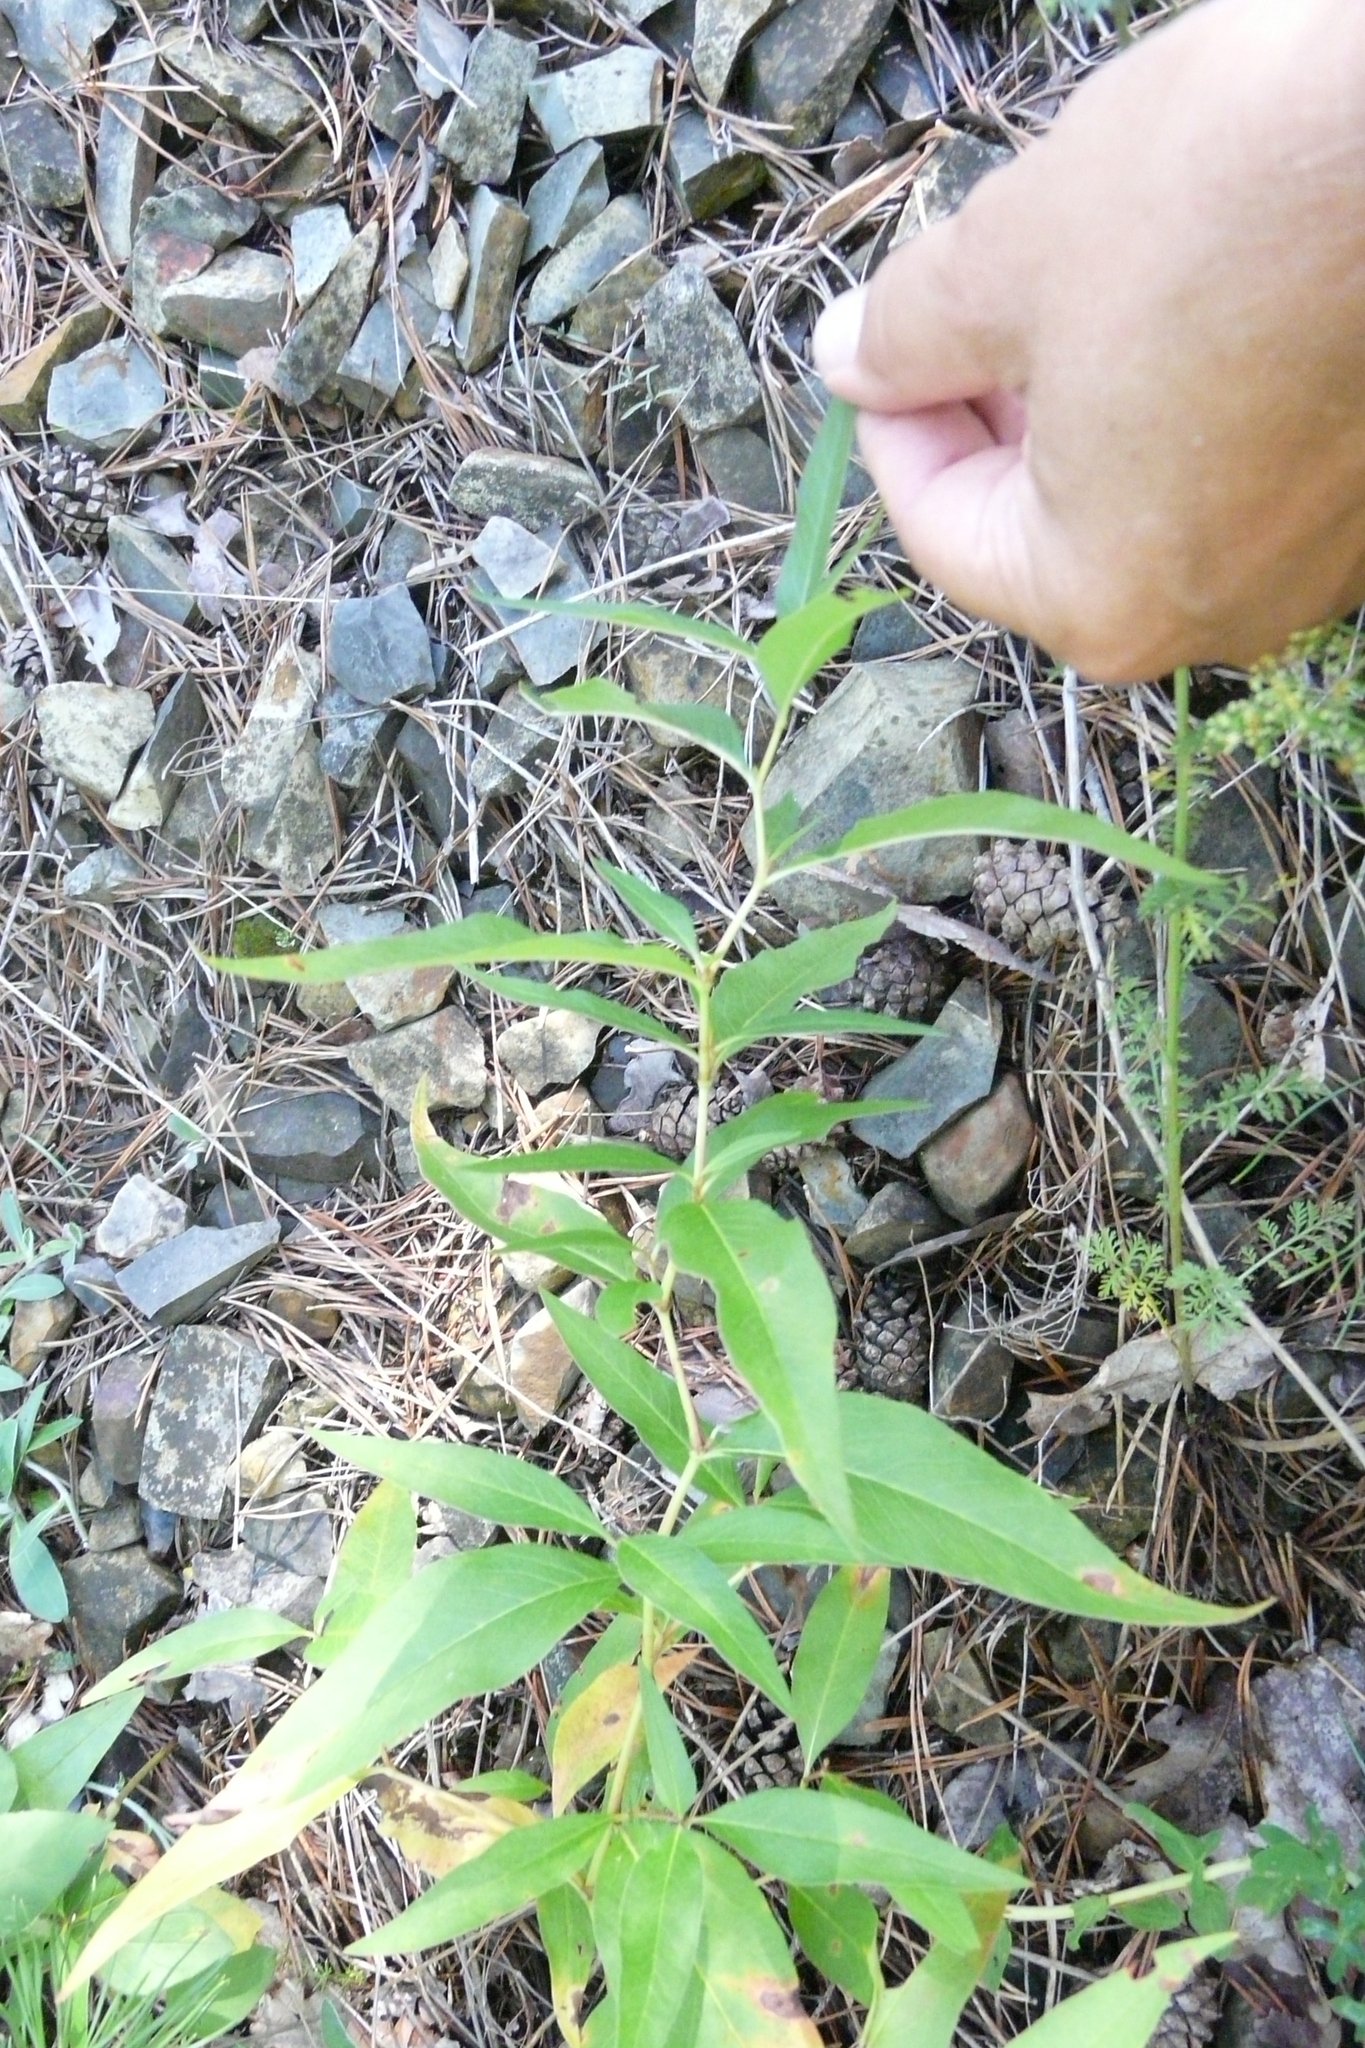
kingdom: Plantae
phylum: Tracheophyta
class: Magnoliopsida
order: Caryophyllales
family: Polygonaceae
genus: Koenigia
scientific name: Koenigia alpina
